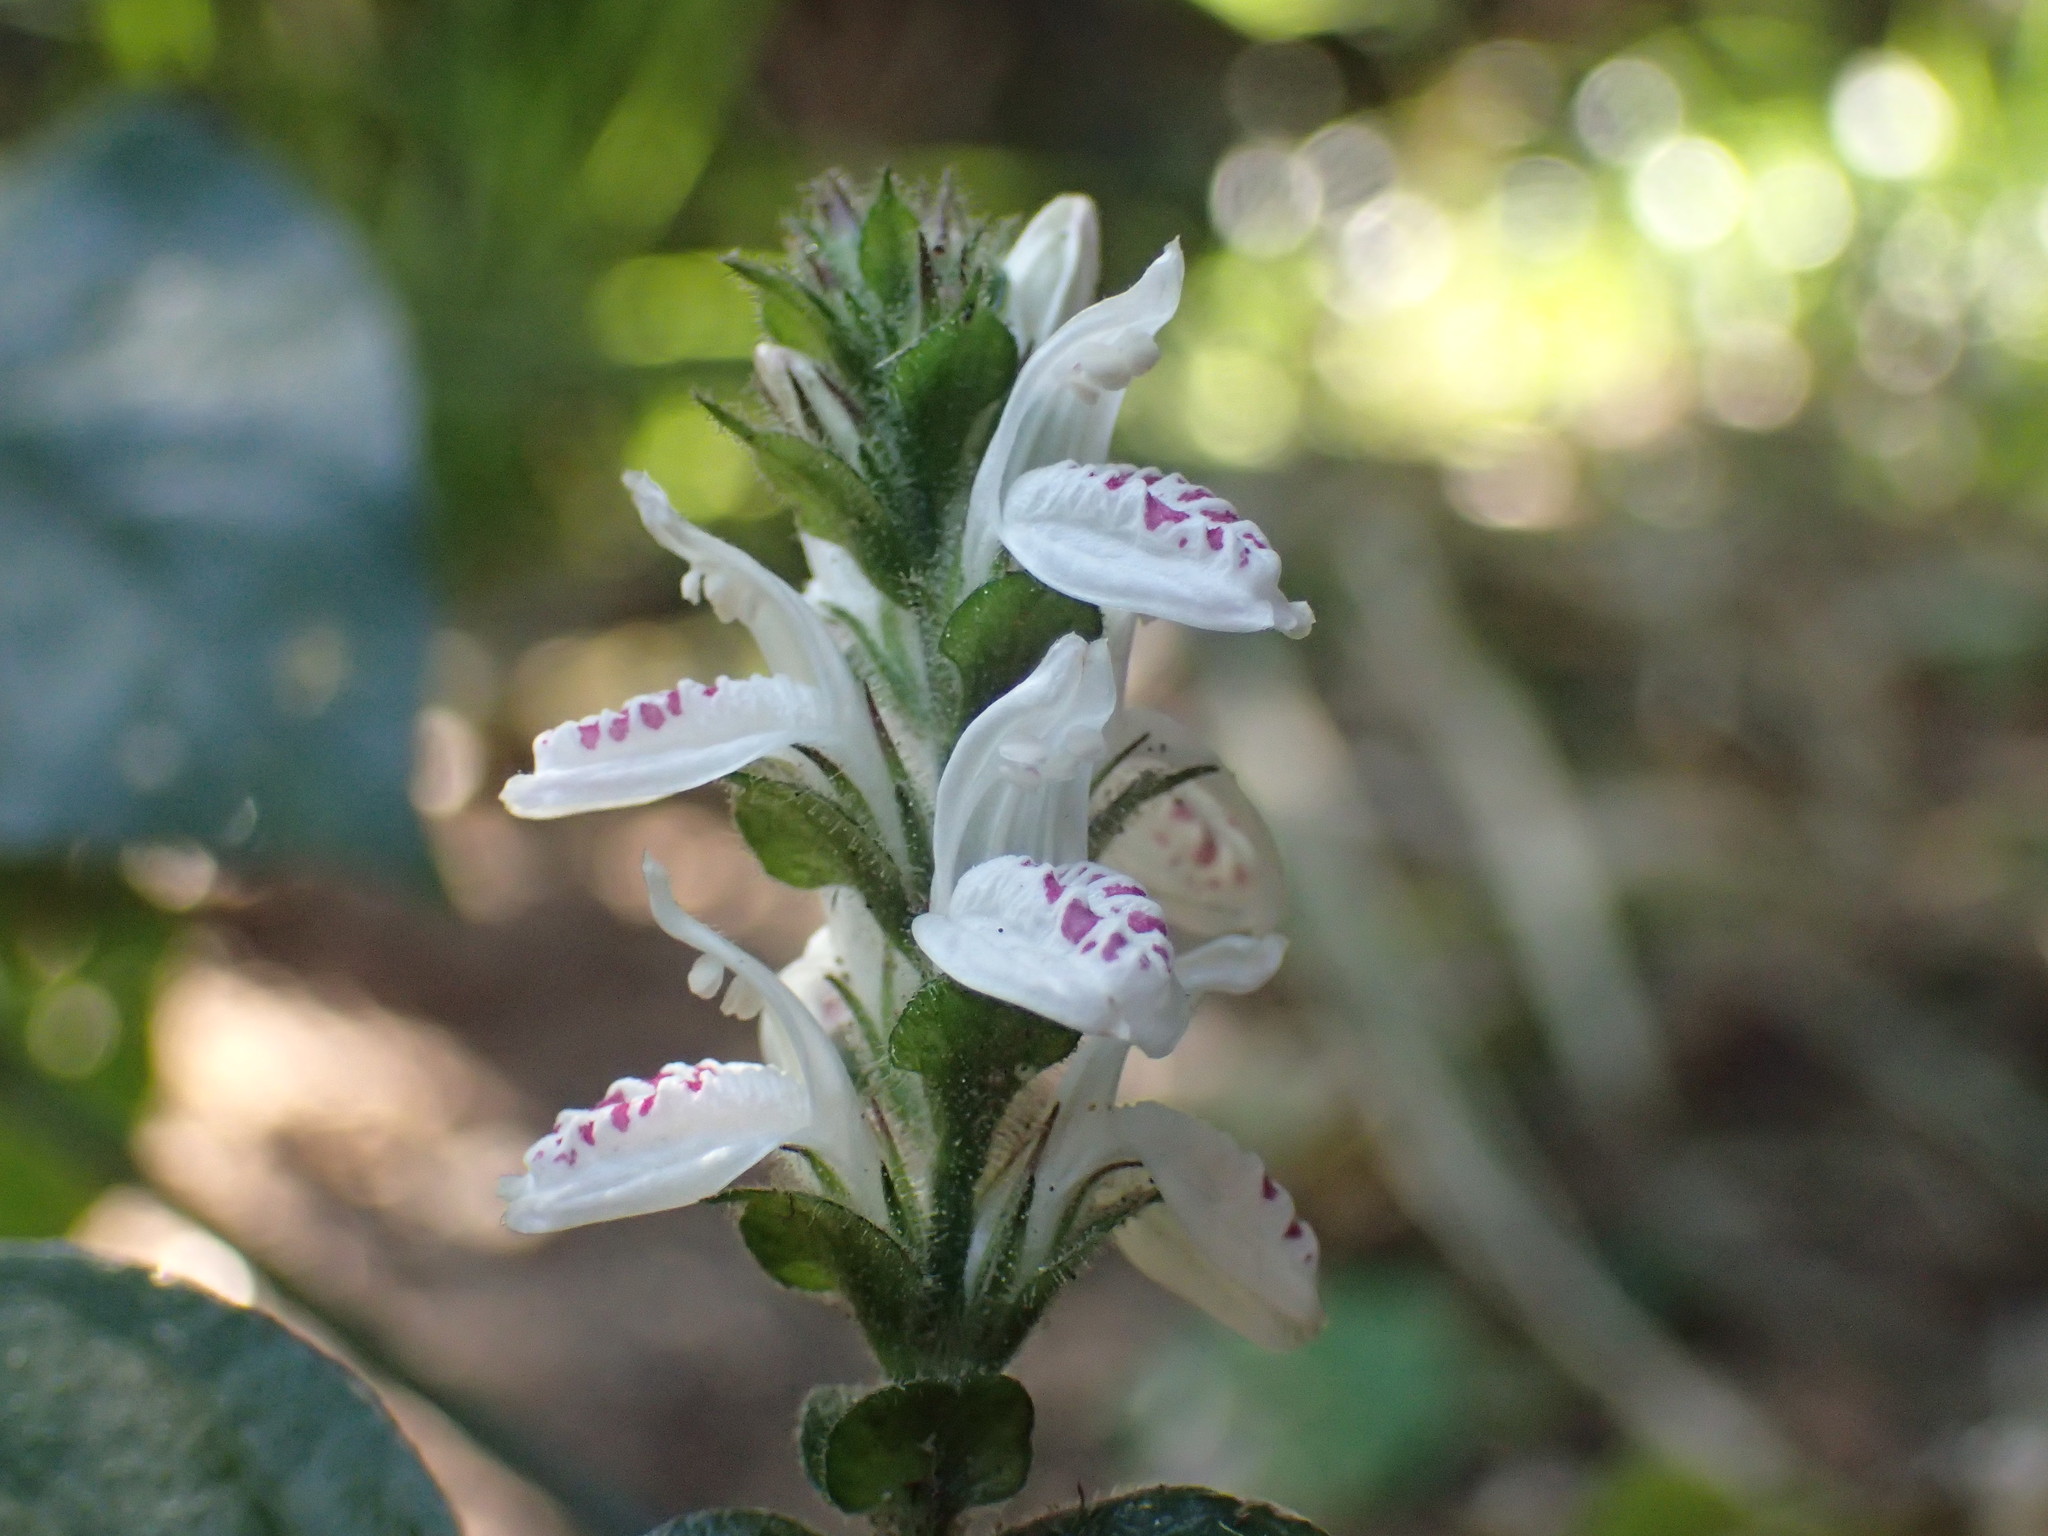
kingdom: Plantae
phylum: Tracheophyta
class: Magnoliopsida
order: Lamiales
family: Acanthaceae
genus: Isoglossa
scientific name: Isoglossa woodii
